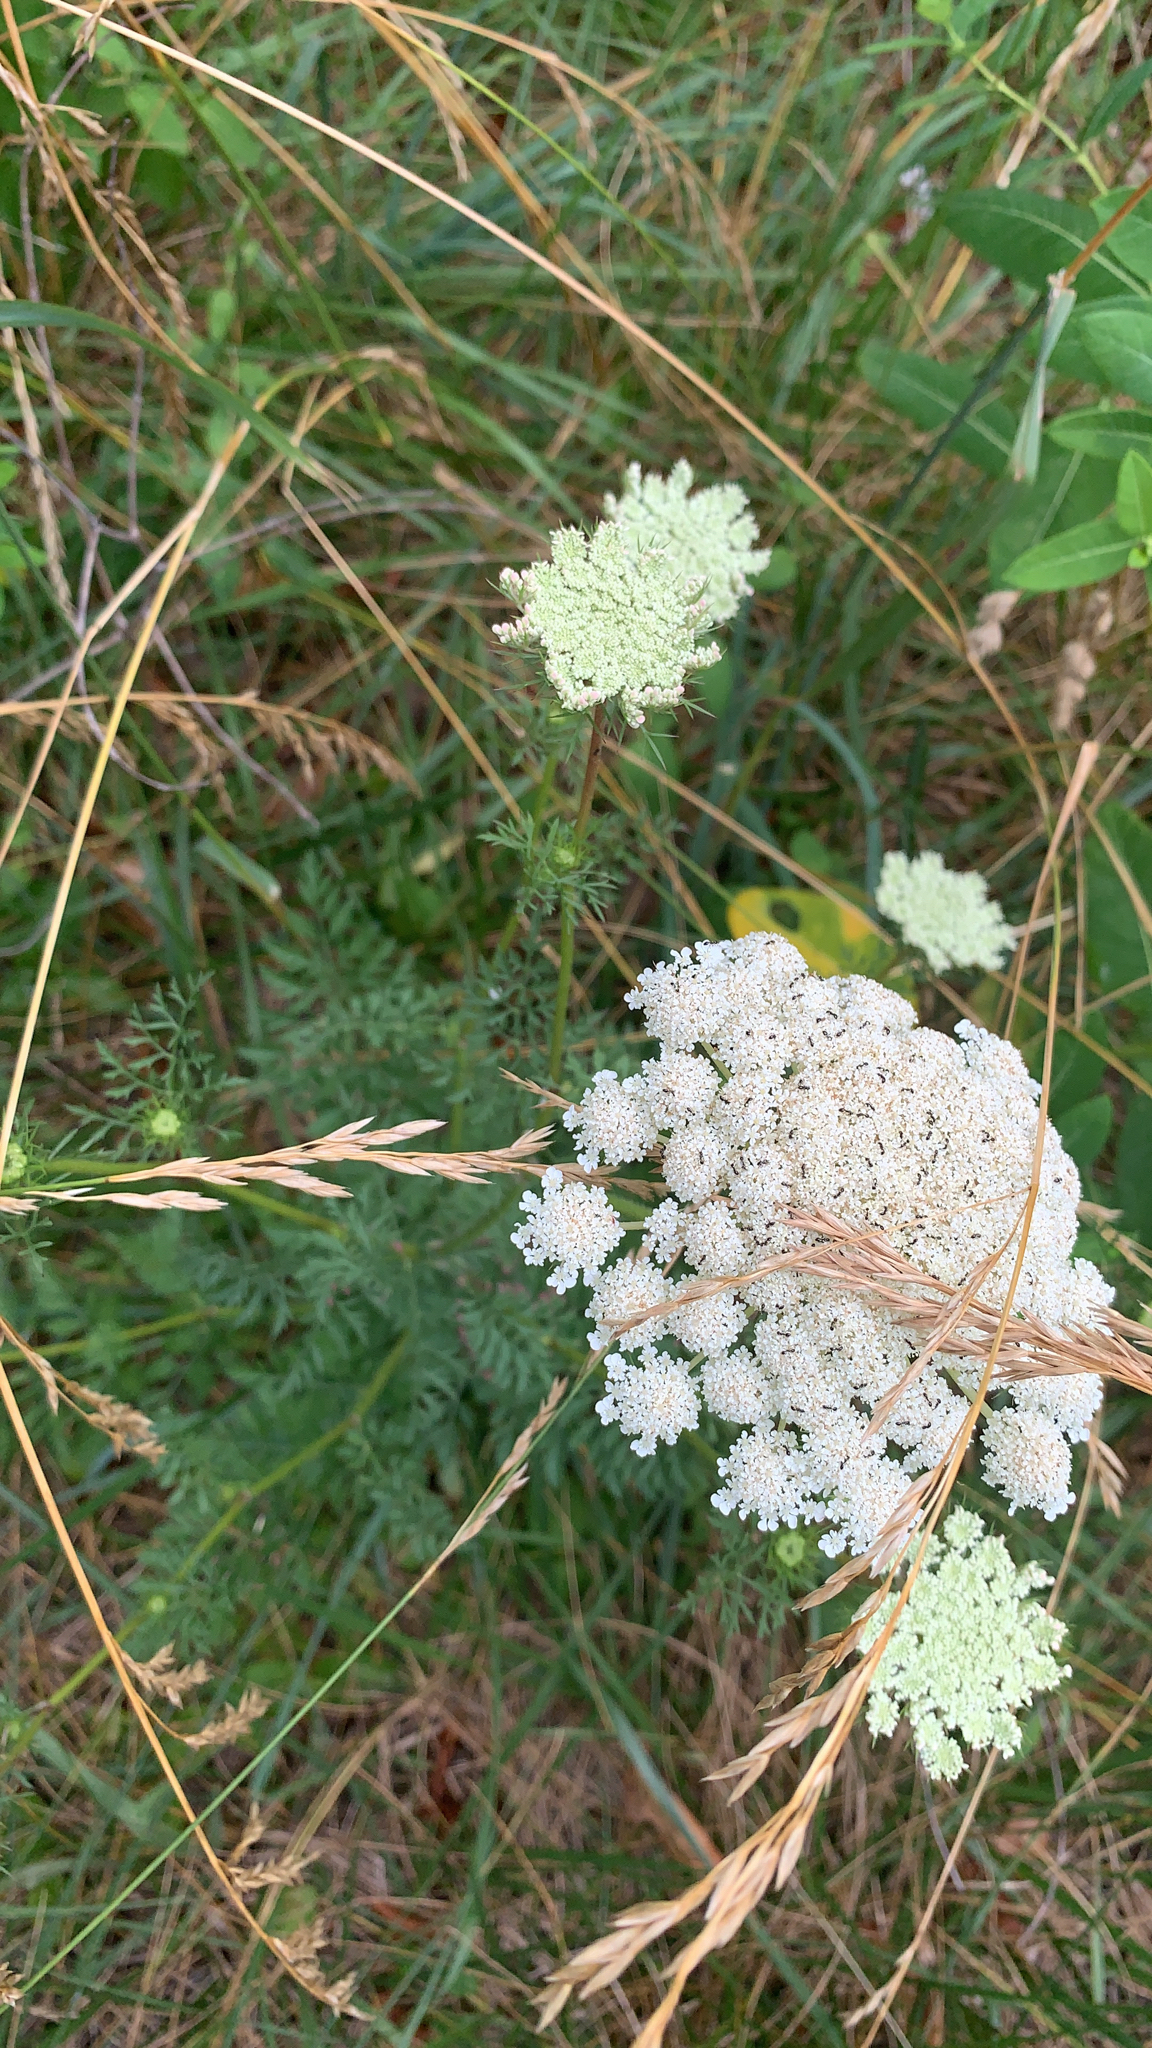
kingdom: Plantae
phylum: Tracheophyta
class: Magnoliopsida
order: Apiales
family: Apiaceae
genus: Daucus
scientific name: Daucus carota
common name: Wild carrot
